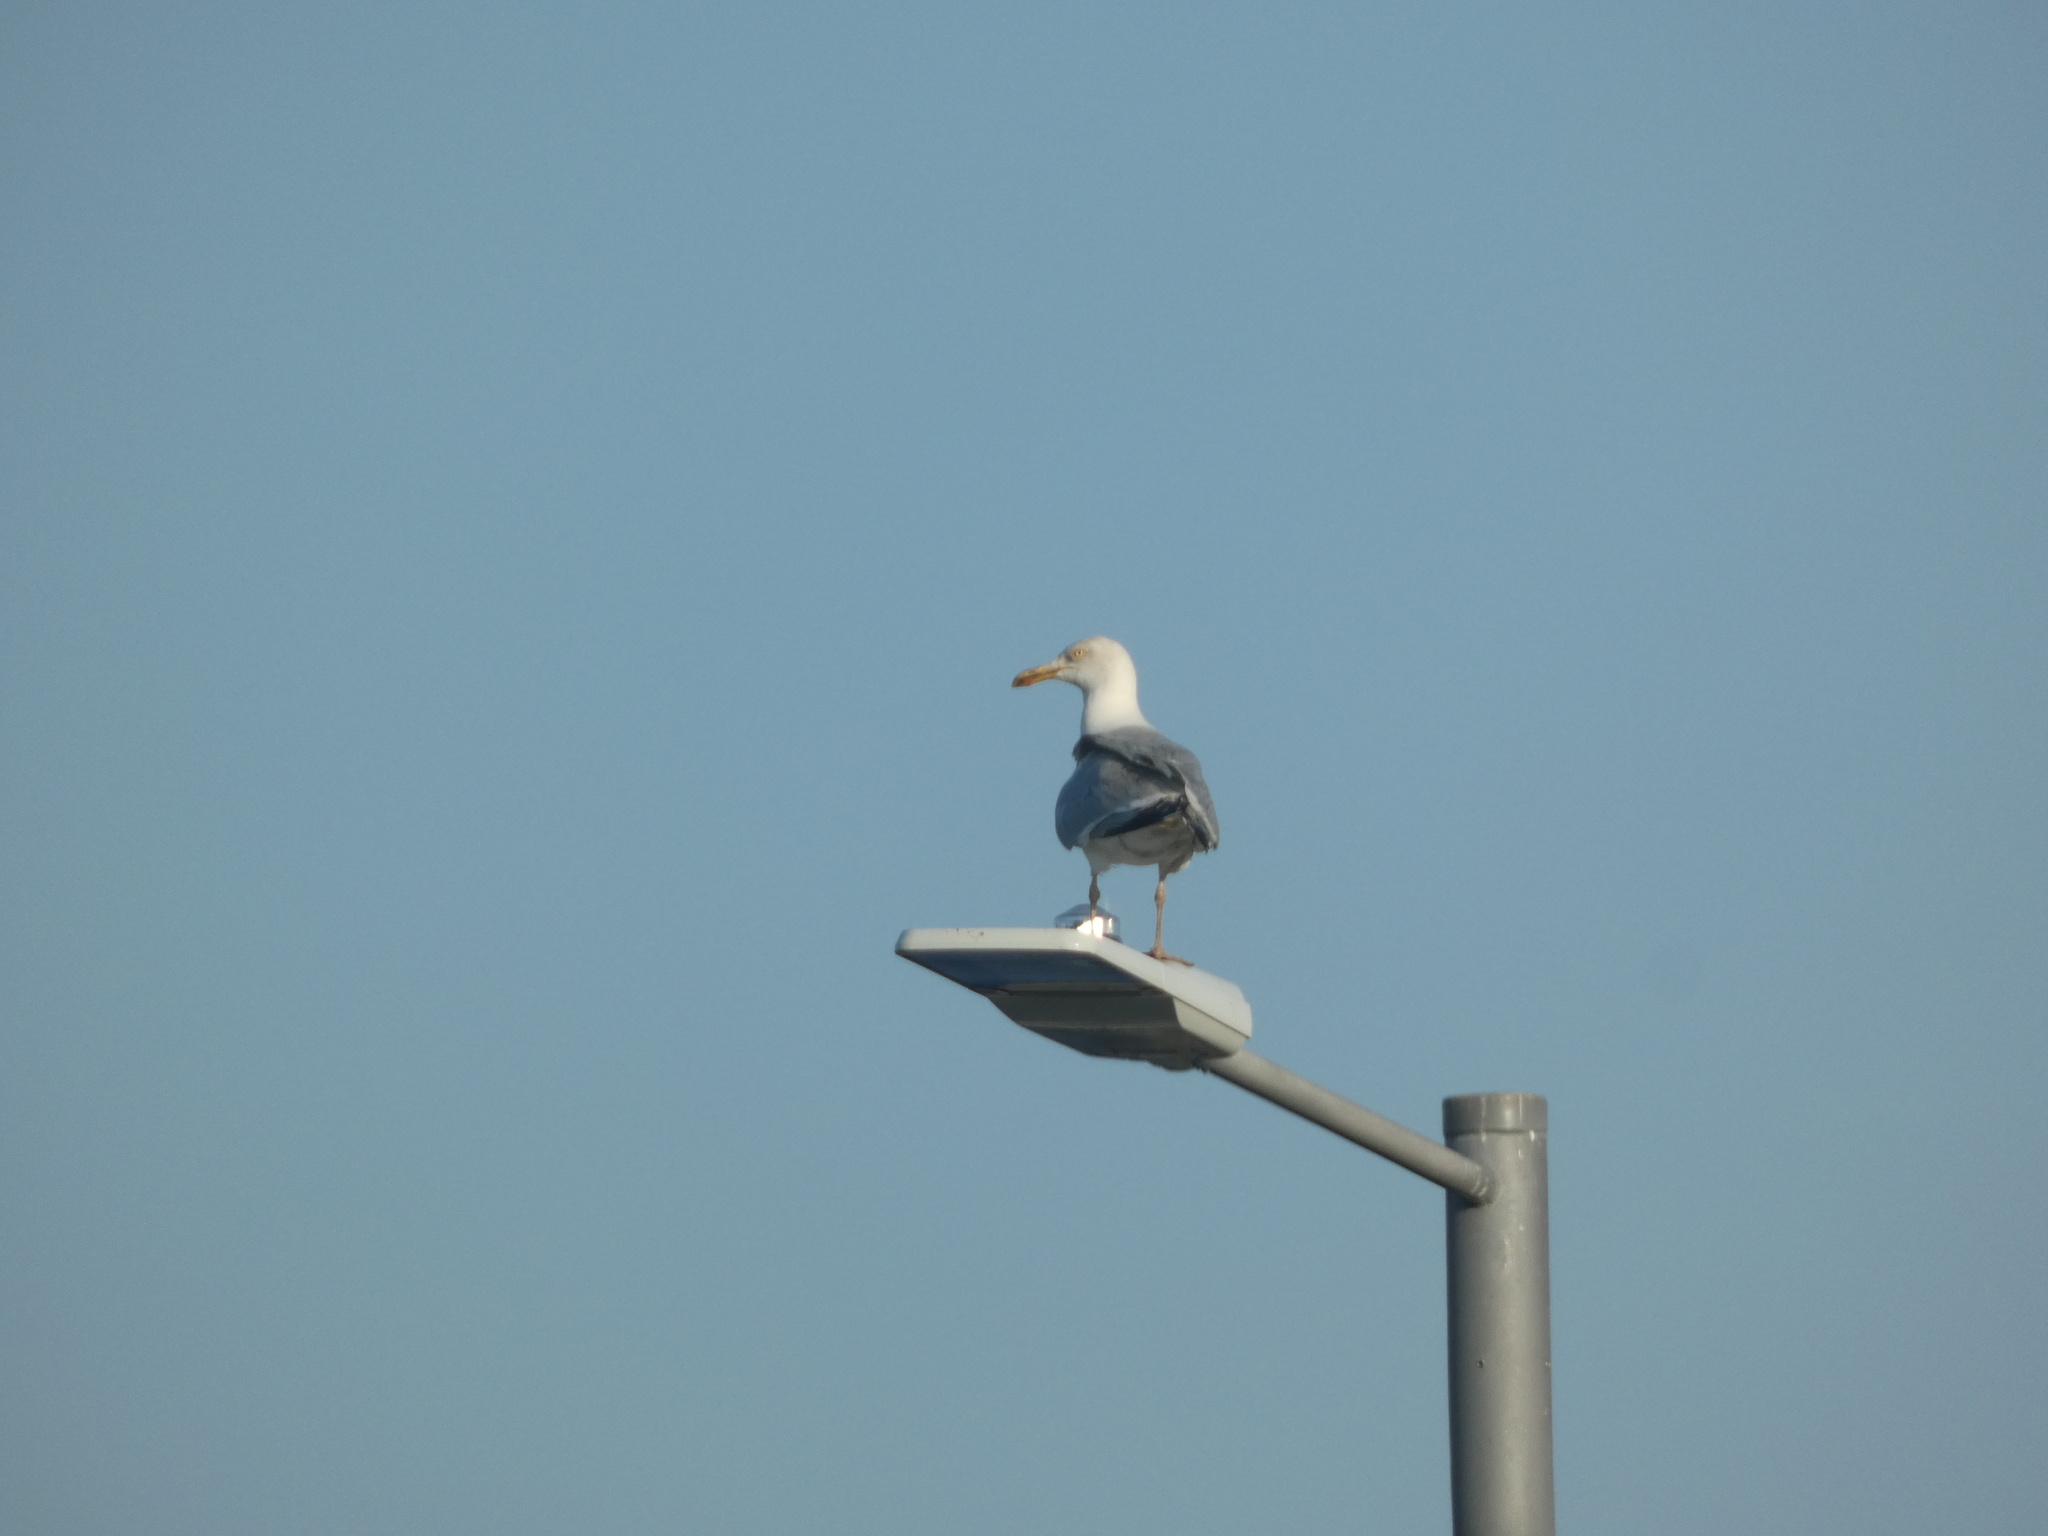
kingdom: Animalia
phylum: Chordata
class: Aves
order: Charadriiformes
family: Laridae
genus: Larus
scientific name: Larus argentatus
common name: Herring gull
